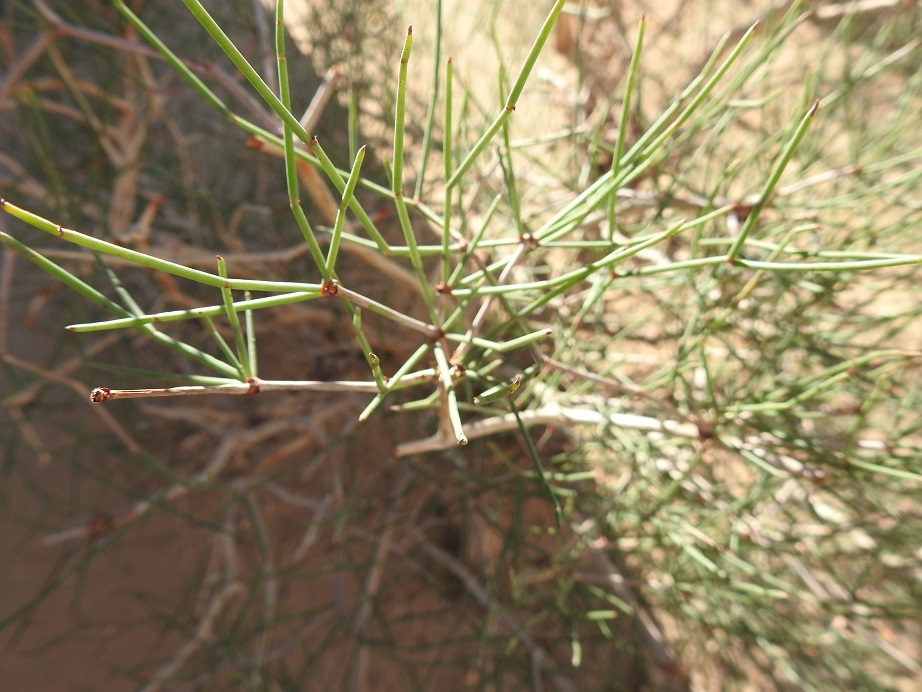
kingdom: Plantae
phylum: Tracheophyta
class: Gnetopsida
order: Ephedrales
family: Ephedraceae
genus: Ephedra
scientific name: Ephedra alata
